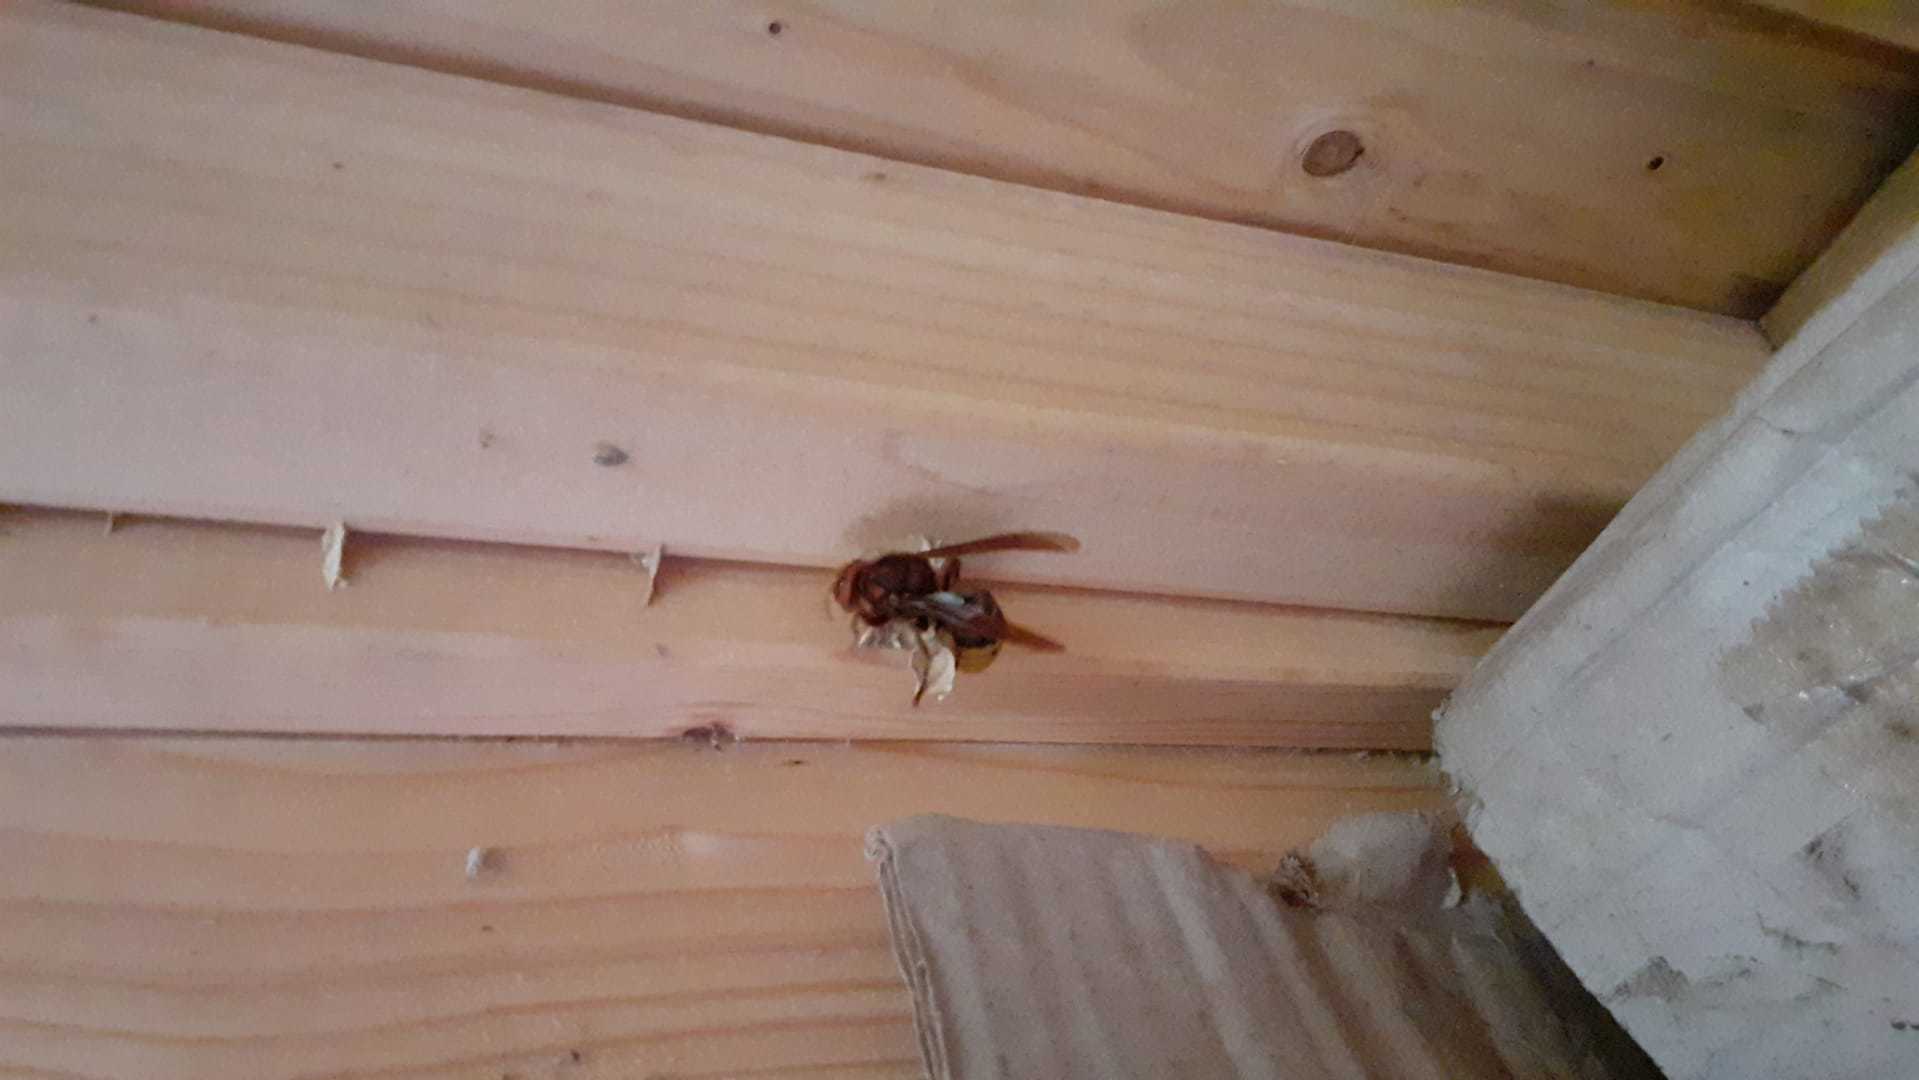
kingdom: Animalia
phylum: Arthropoda
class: Insecta
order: Hymenoptera
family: Vespidae
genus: Vespa
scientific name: Vespa crabro
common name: Hornet
